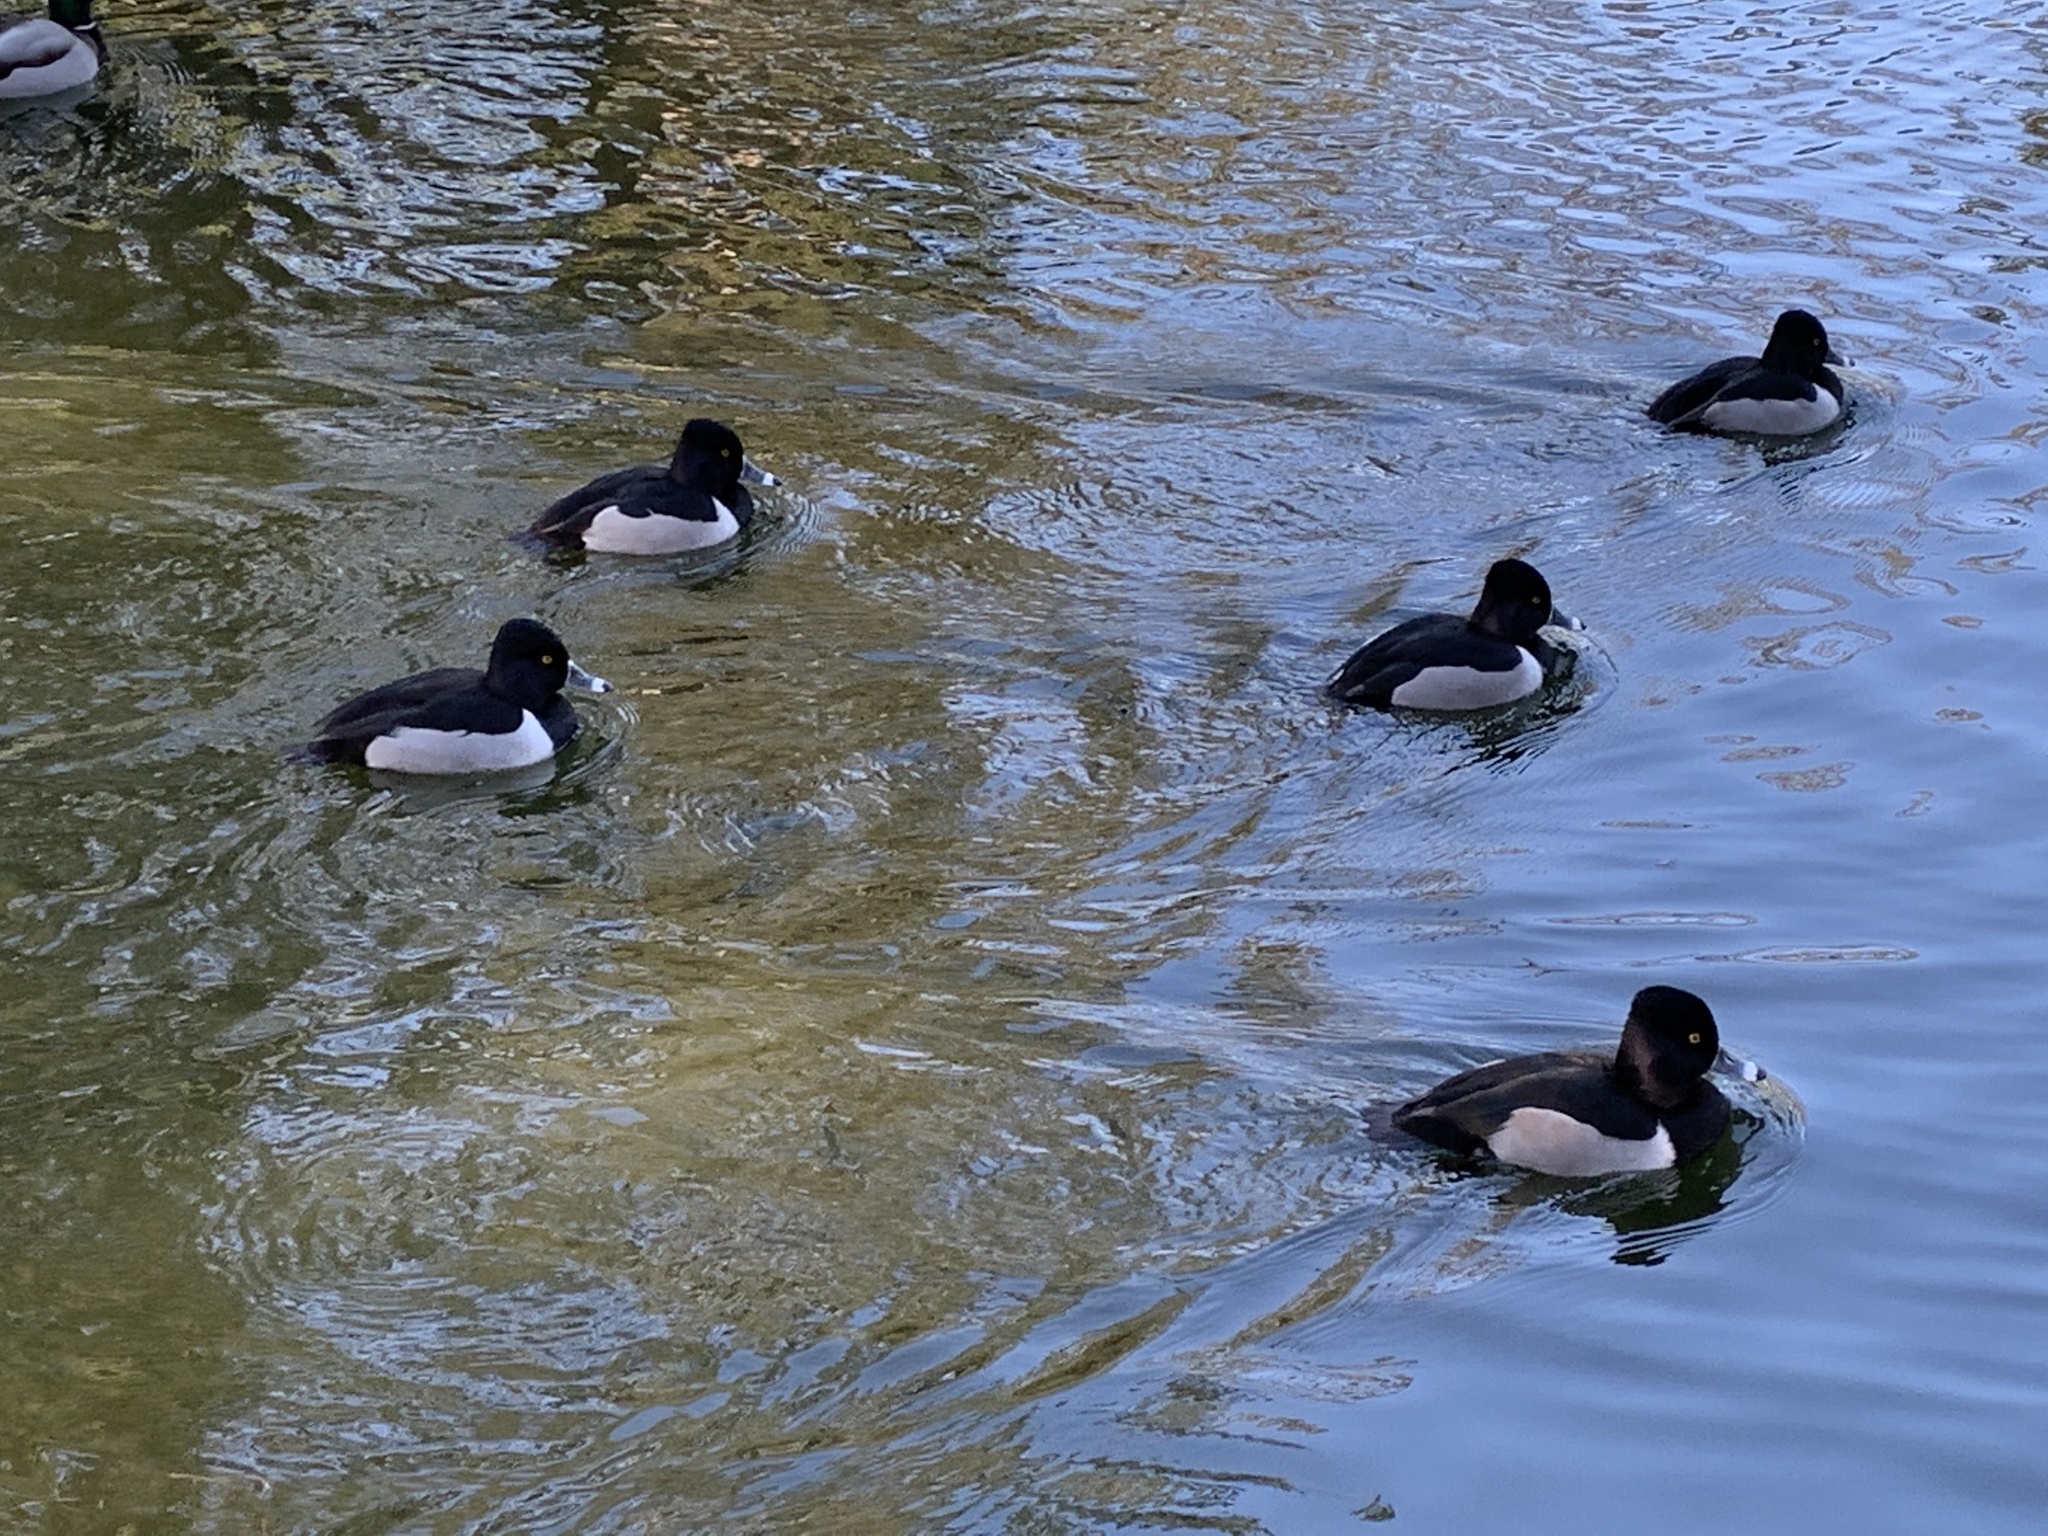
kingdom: Animalia
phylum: Chordata
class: Aves
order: Anseriformes
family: Anatidae
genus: Aythya
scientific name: Aythya collaris
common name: Ring-necked duck
